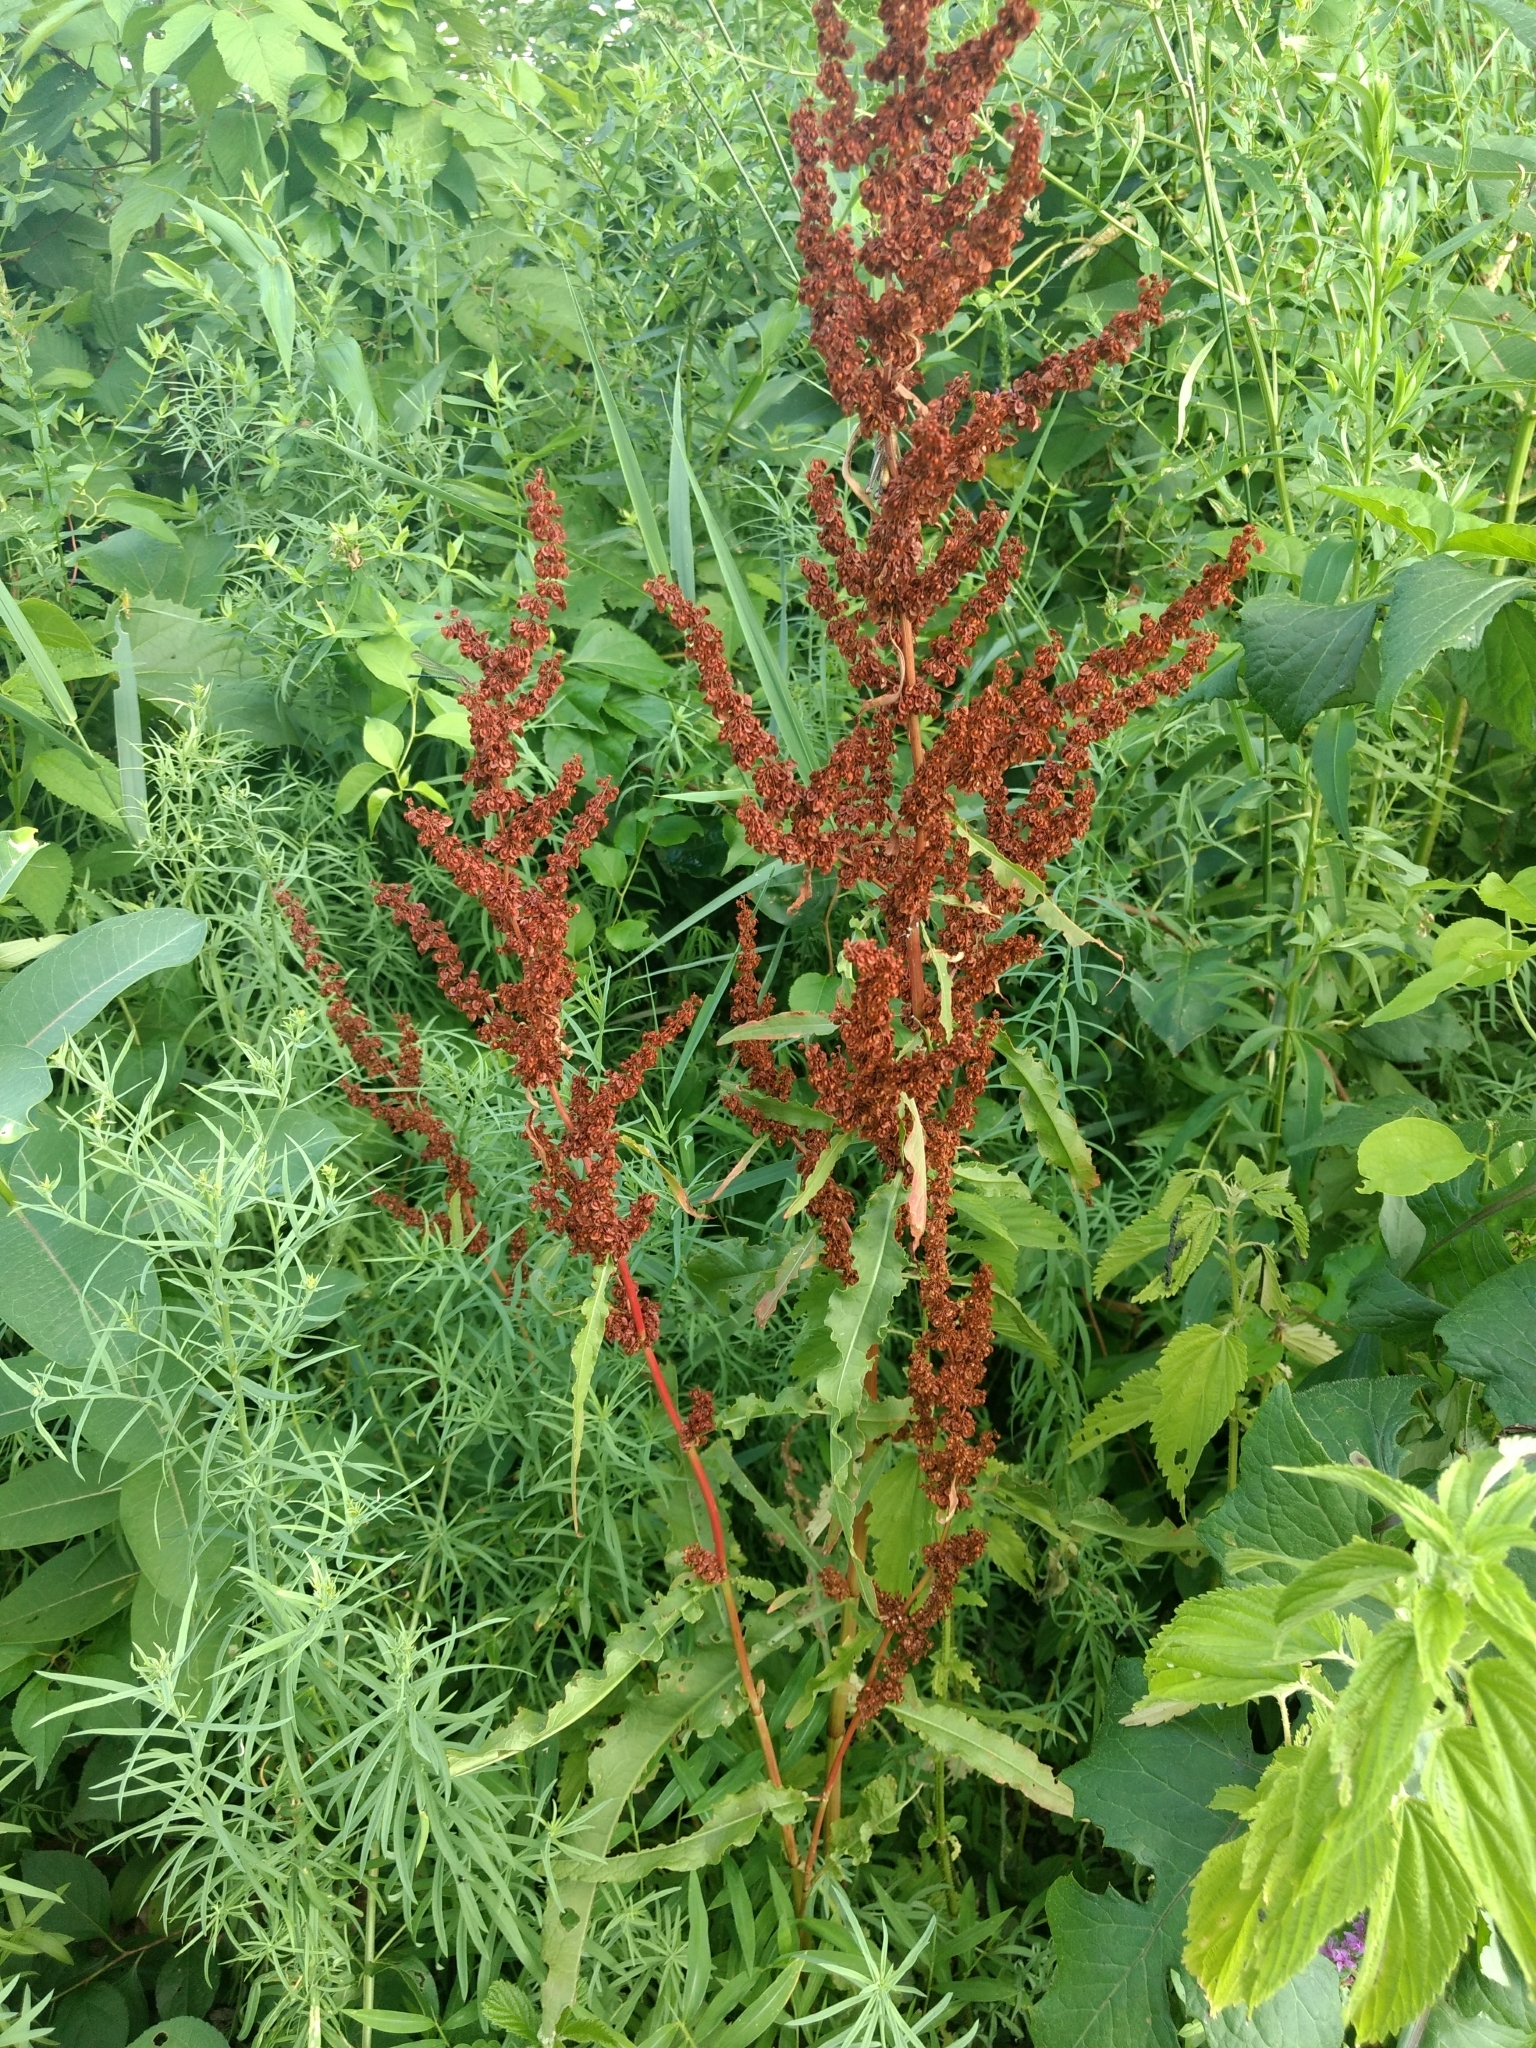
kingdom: Plantae
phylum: Tracheophyta
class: Magnoliopsida
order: Caryophyllales
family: Polygonaceae
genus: Rumex
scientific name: Rumex crispus
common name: Curled dock
